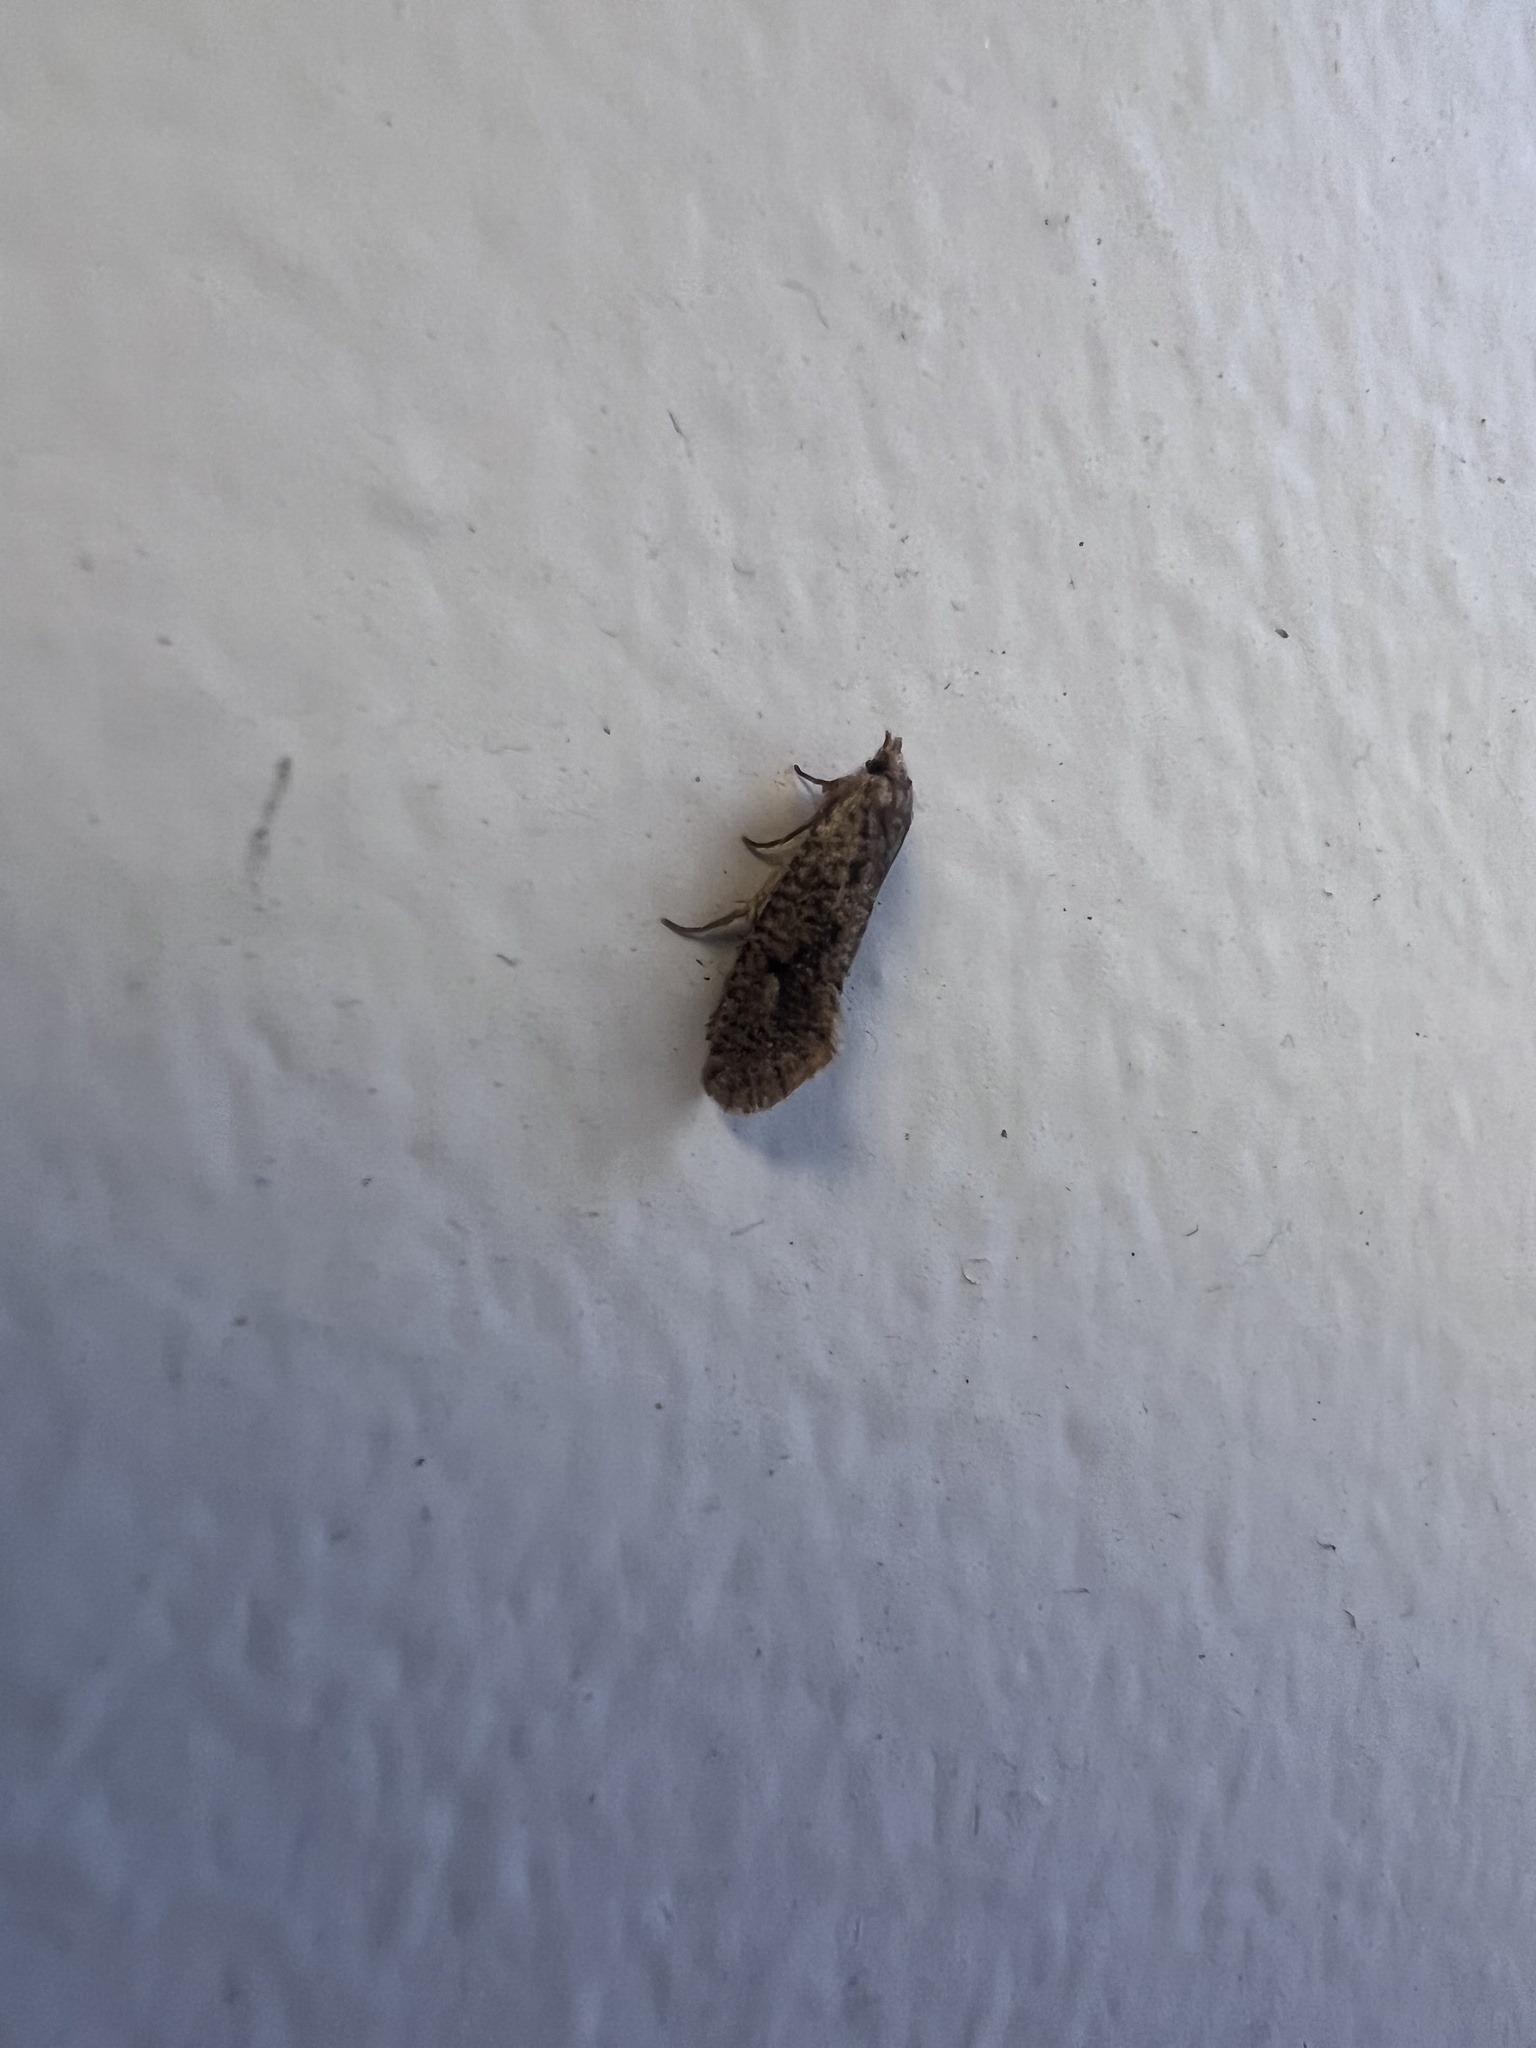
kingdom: Animalia
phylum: Arthropoda
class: Insecta
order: Lepidoptera
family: Tineidae
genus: Acrolophus
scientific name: Acrolophus walsinghami
